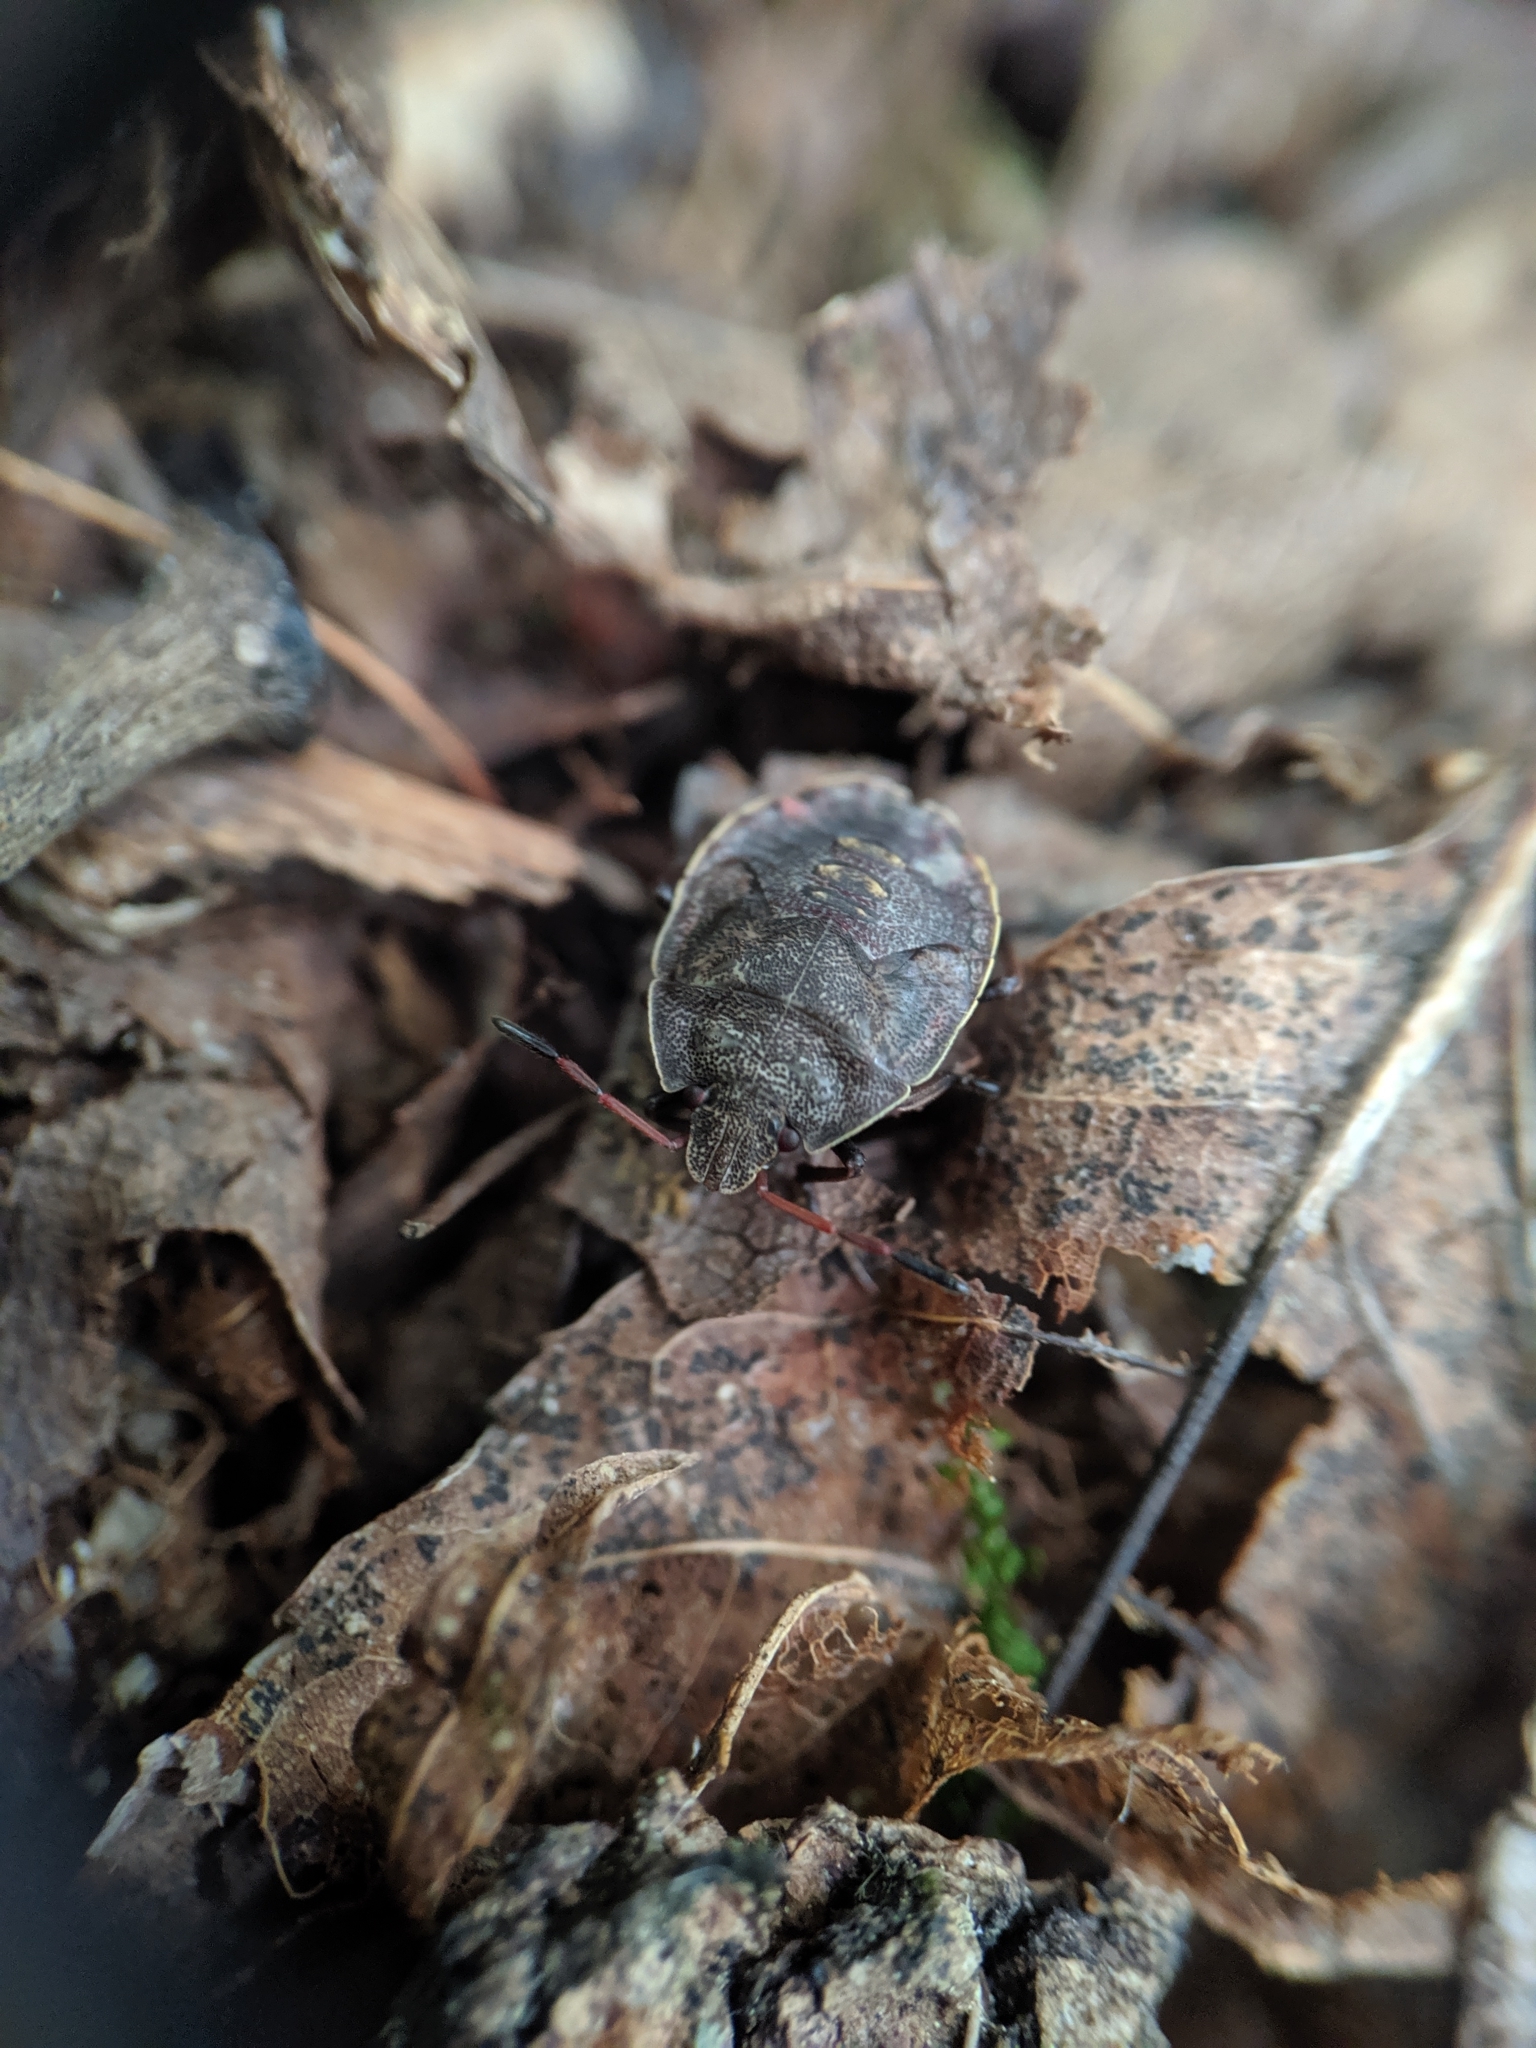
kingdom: Animalia
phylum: Arthropoda
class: Insecta
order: Hemiptera
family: Pentatomidae
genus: Menecles
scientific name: Menecles insertus
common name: Elf shoe stink bug
